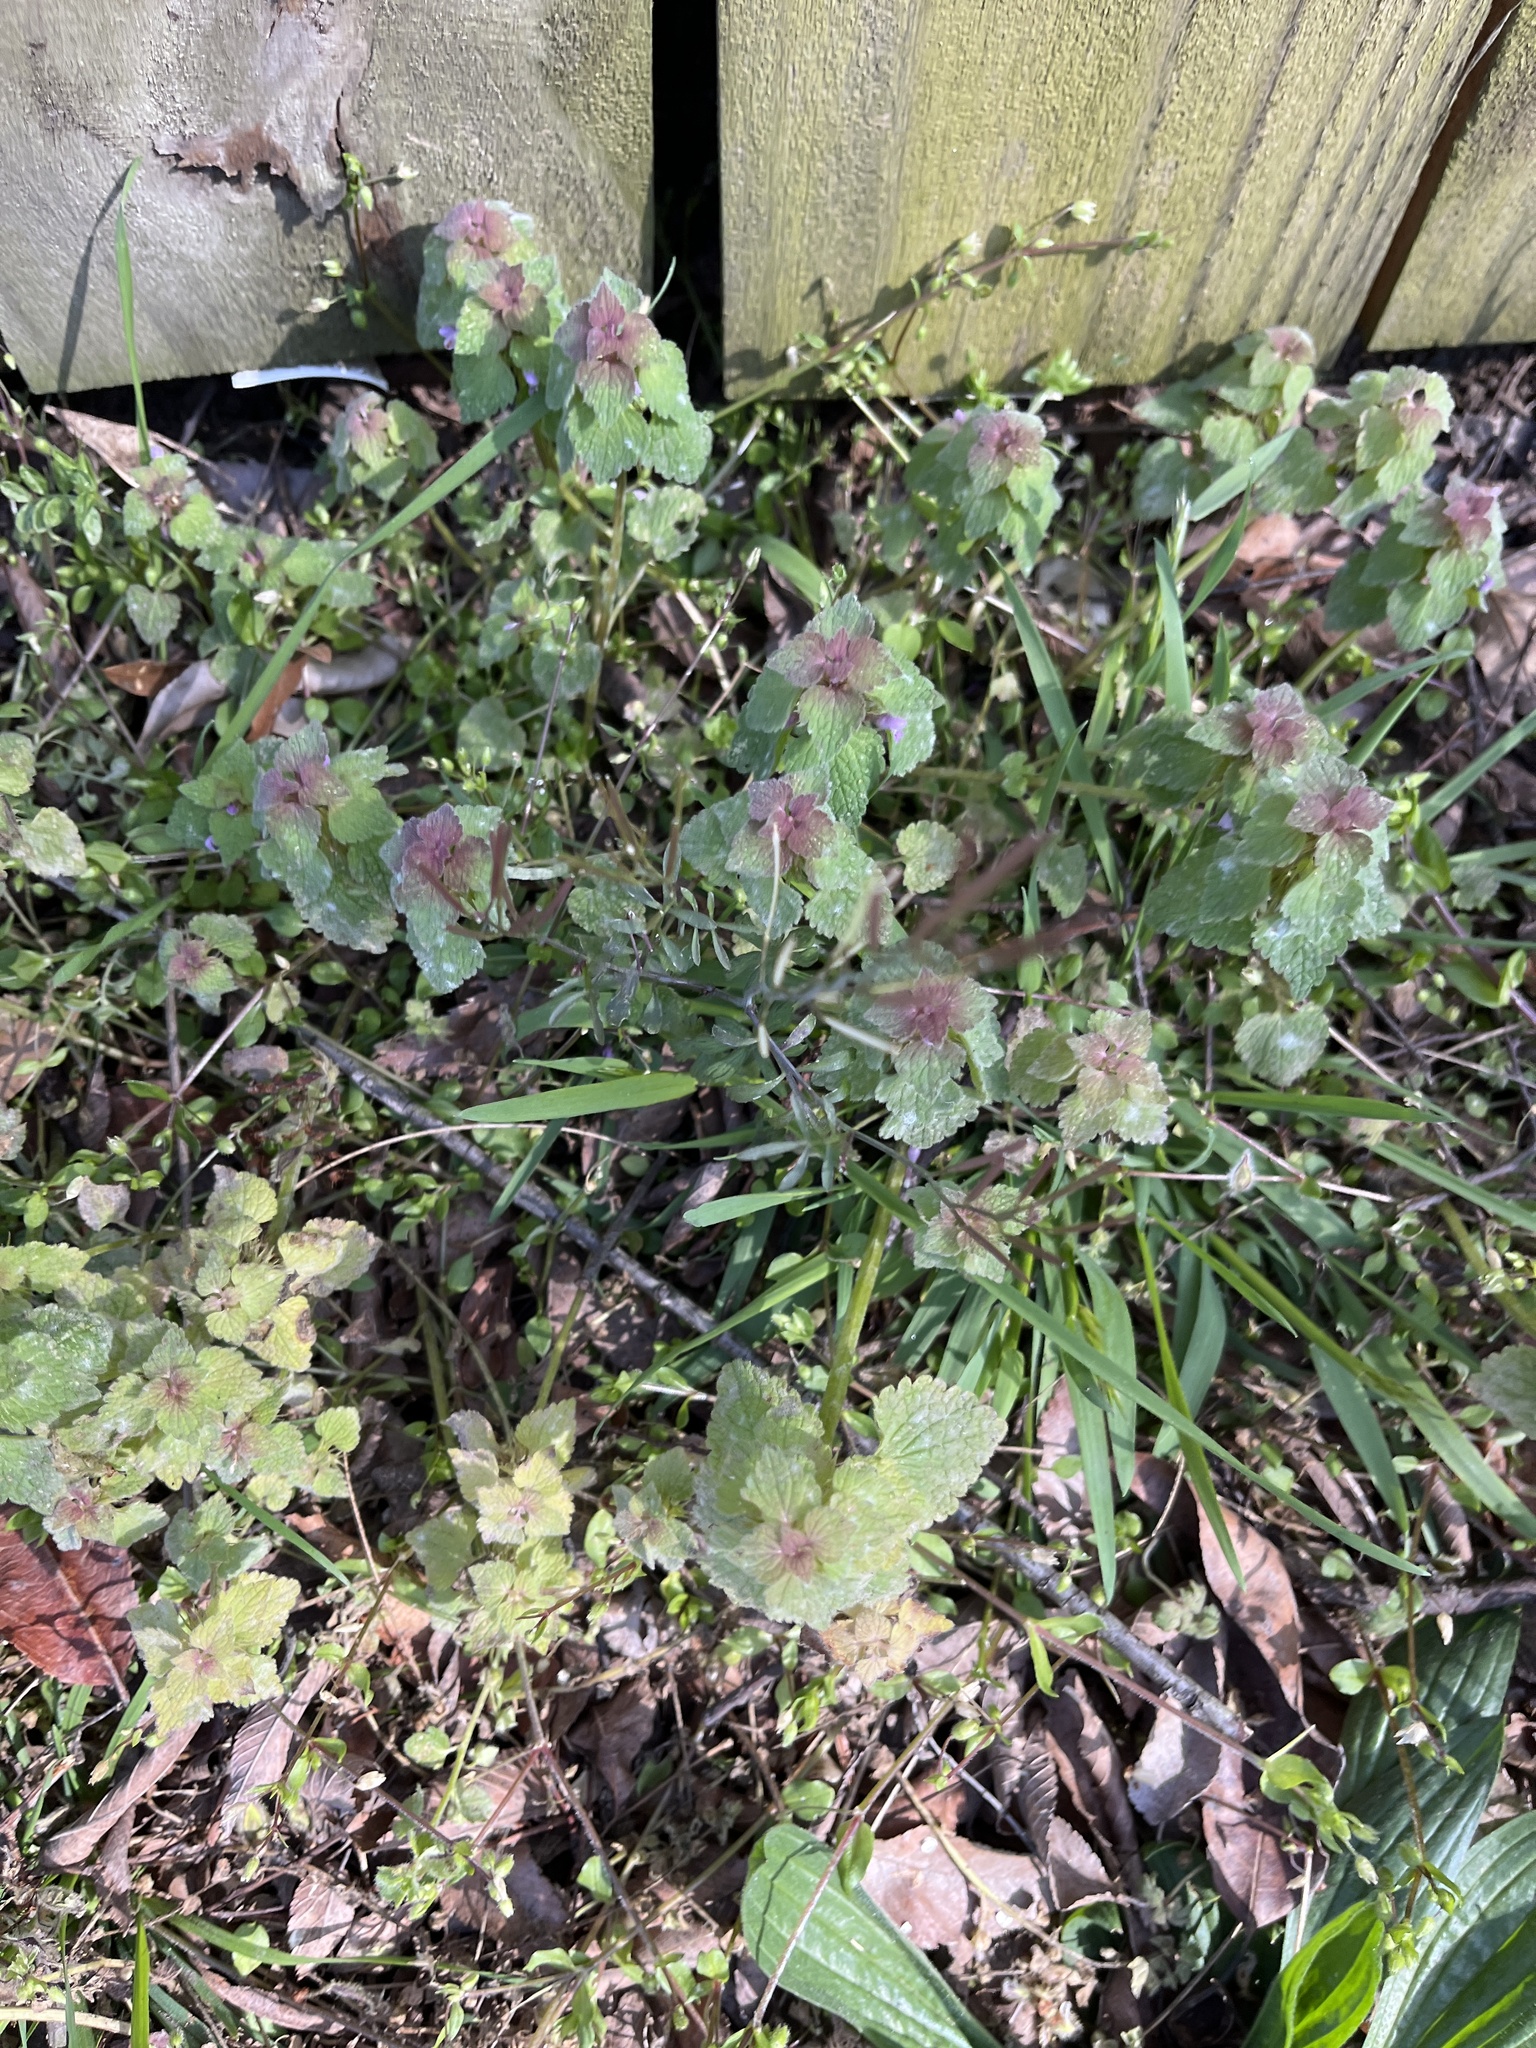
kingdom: Plantae
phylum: Tracheophyta
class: Magnoliopsida
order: Lamiales
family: Lamiaceae
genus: Lamium
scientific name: Lamium purpureum
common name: Red dead-nettle
